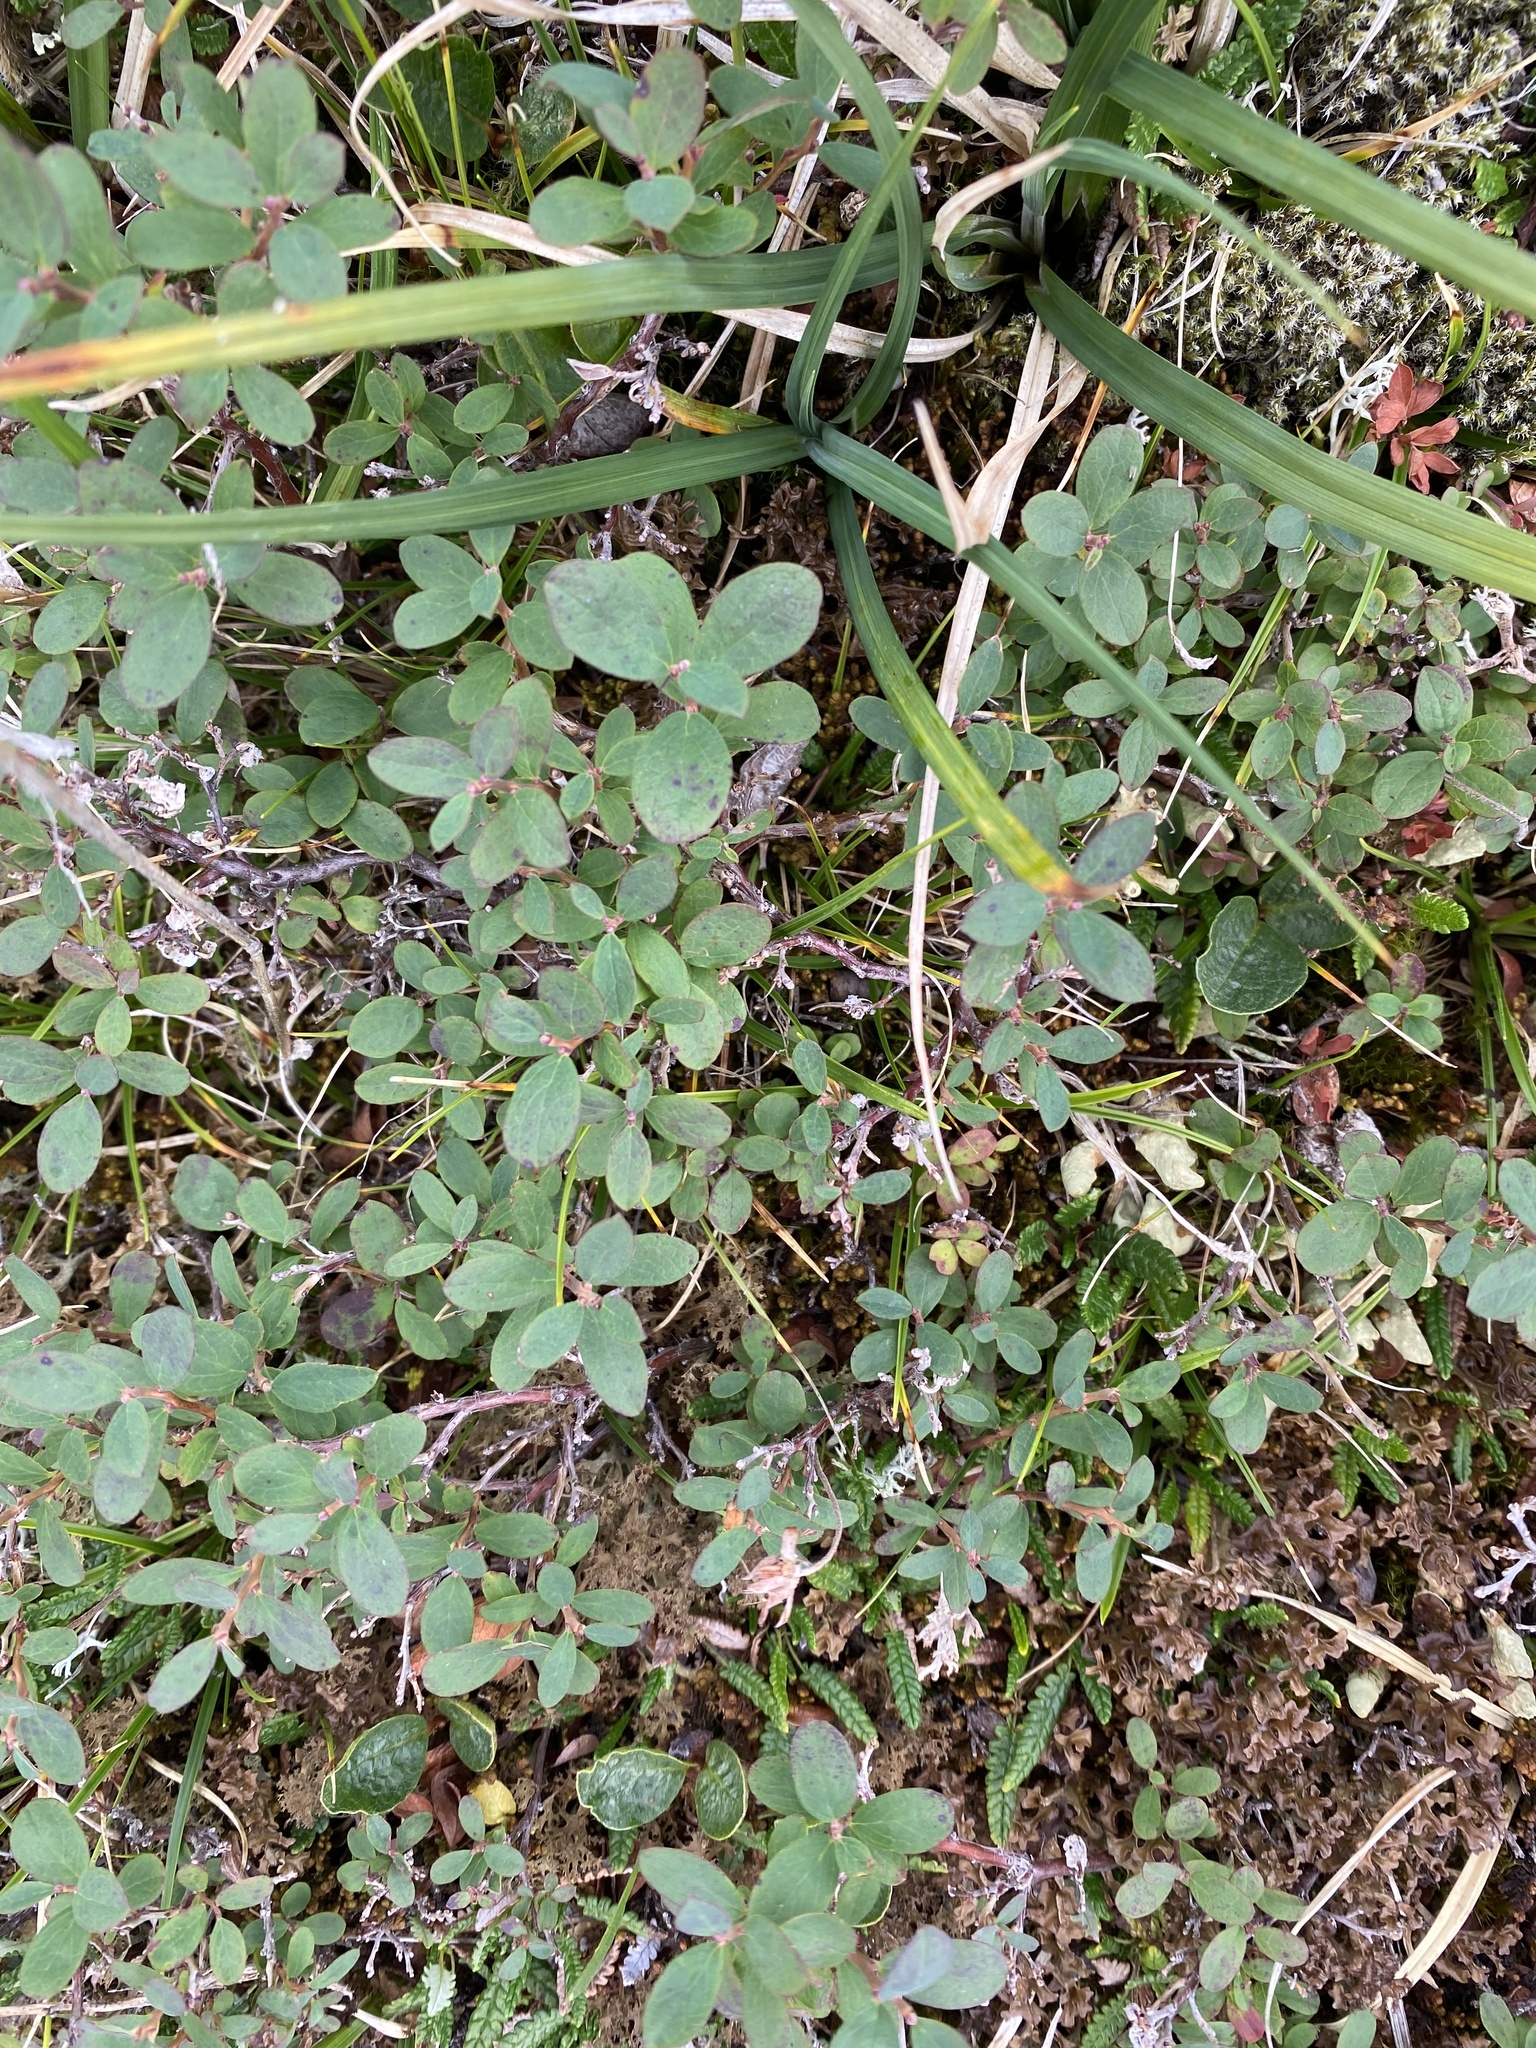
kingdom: Plantae
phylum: Tracheophyta
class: Magnoliopsida
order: Ericales
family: Ericaceae
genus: Vaccinium
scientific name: Vaccinium uliginosum
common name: Bog bilberry
